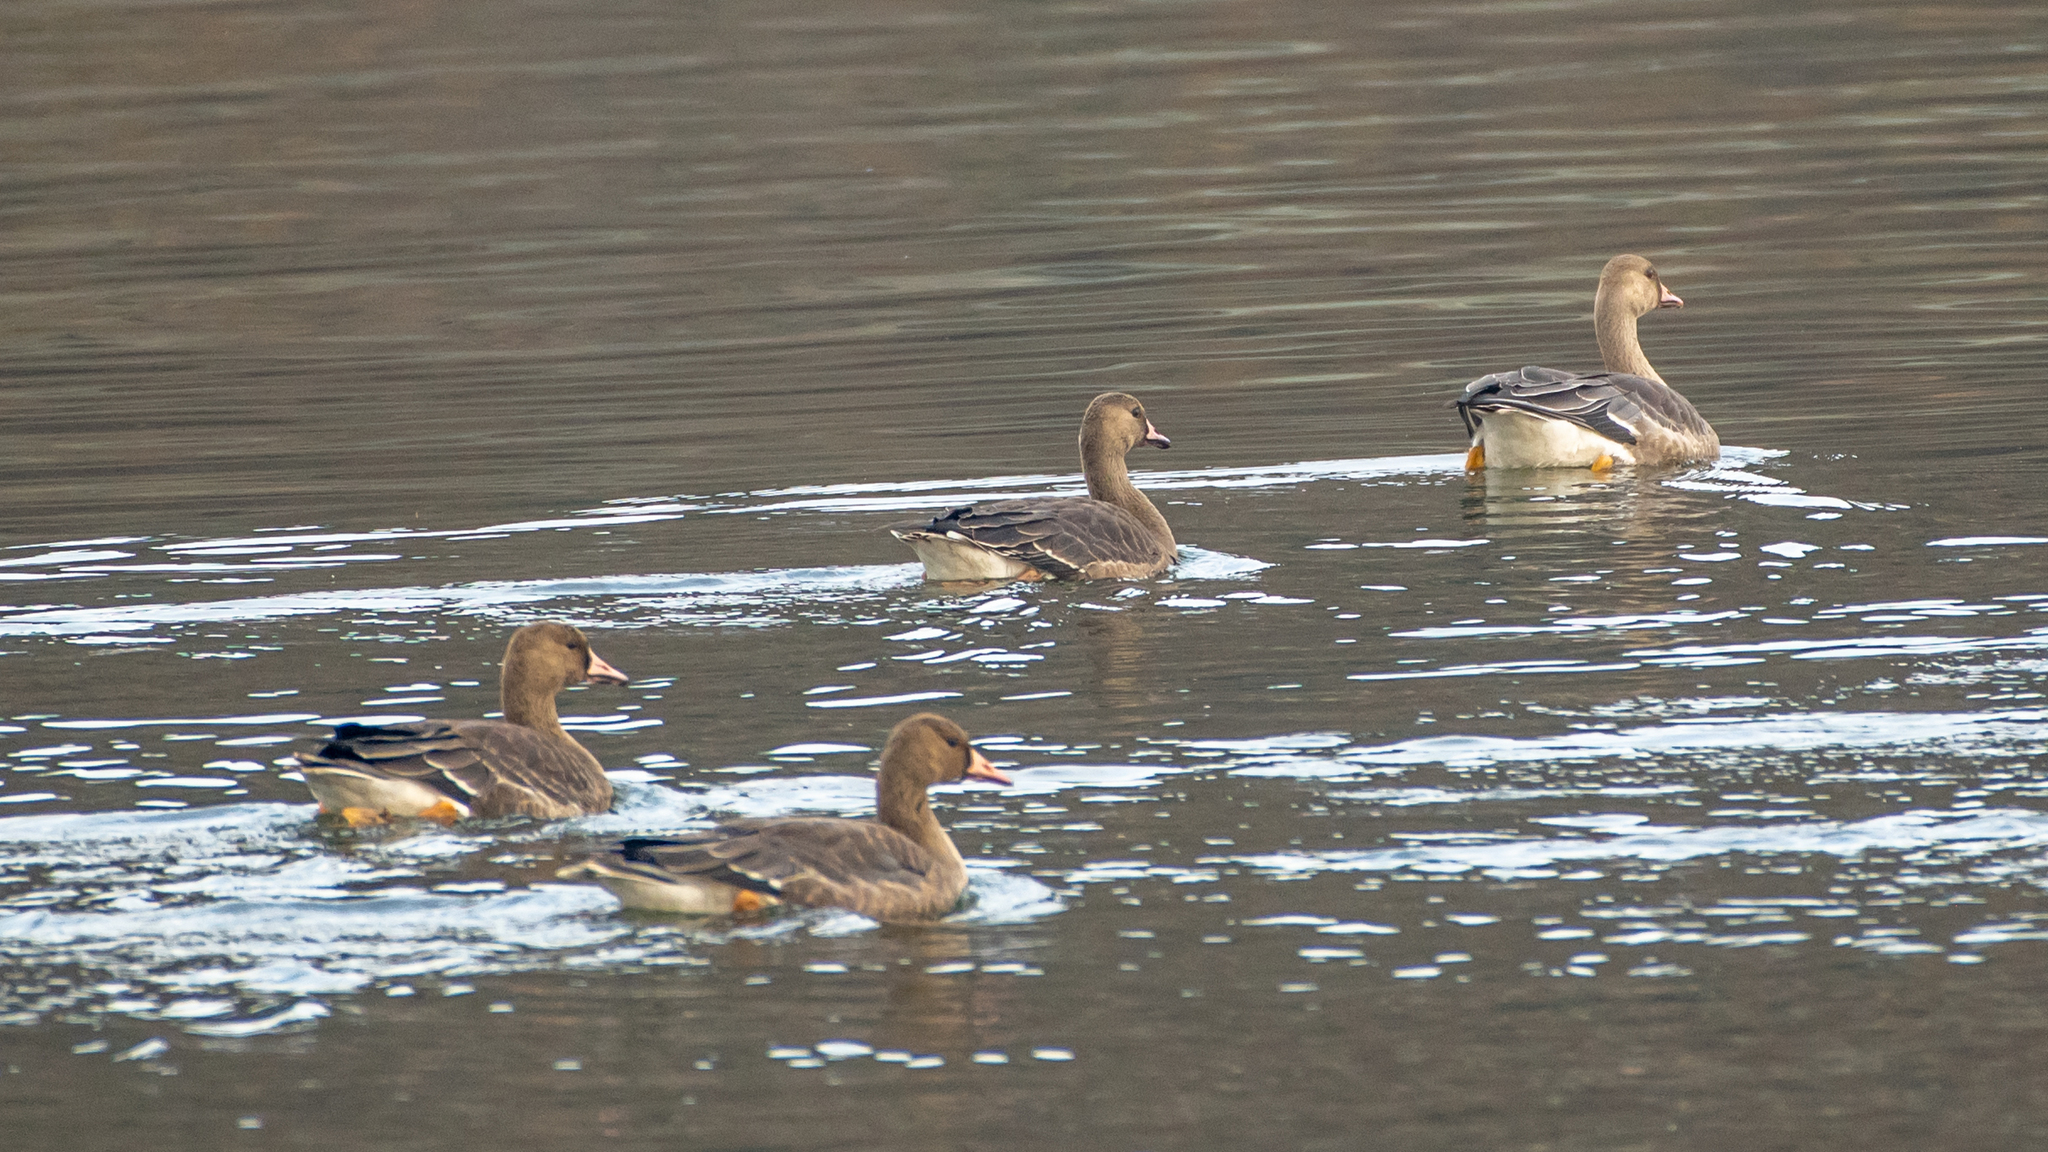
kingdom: Animalia
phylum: Chordata
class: Aves
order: Anseriformes
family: Anatidae
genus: Anser
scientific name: Anser albifrons
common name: Greater white-fronted goose
